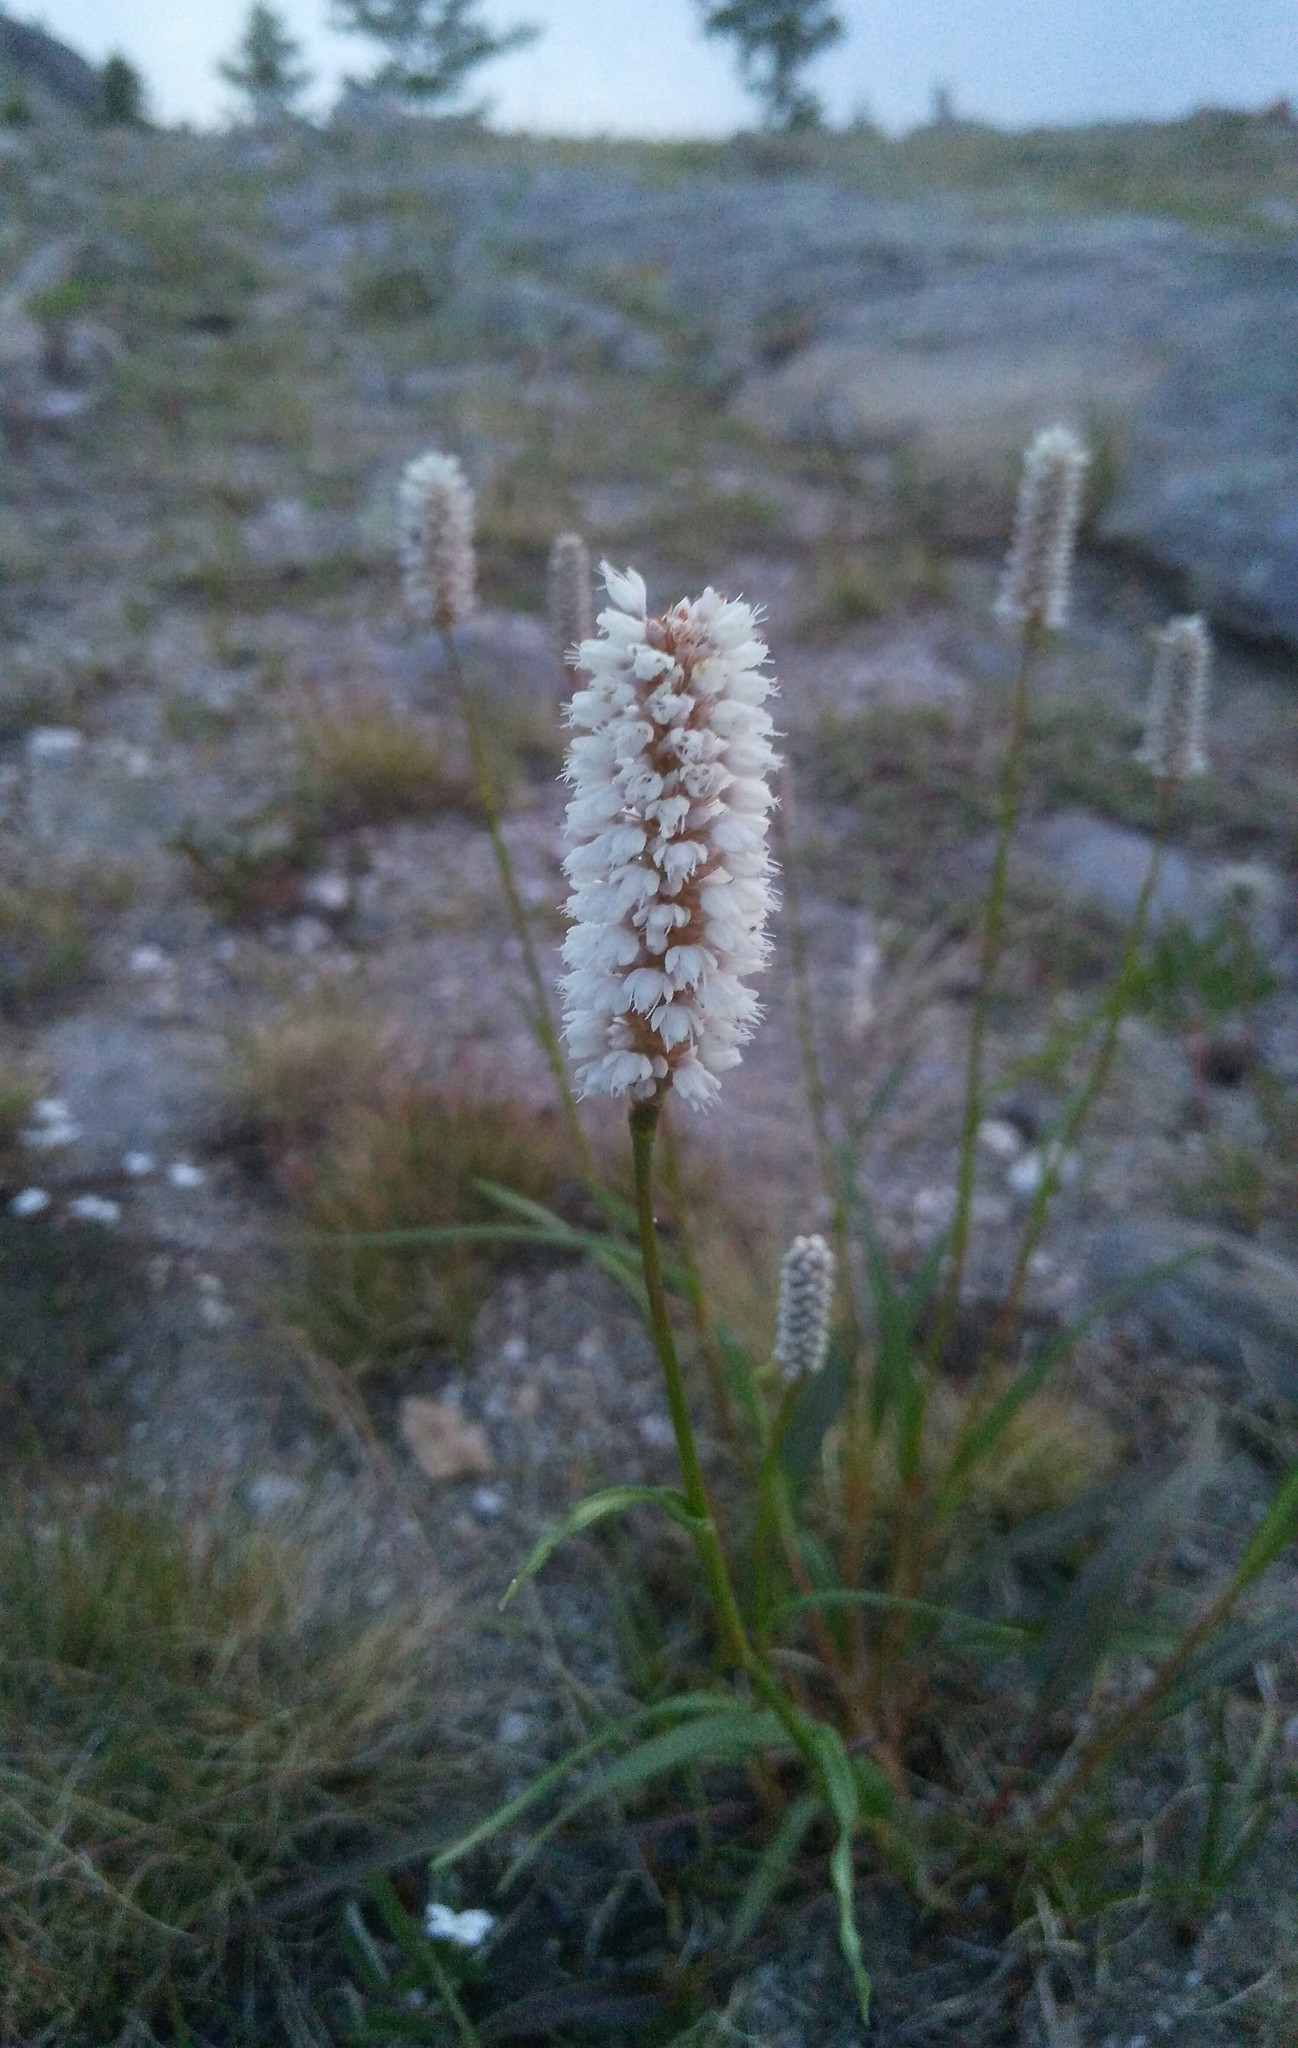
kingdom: Plantae
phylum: Tracheophyta
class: Magnoliopsida
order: Caryophyllales
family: Polygonaceae
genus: Bistorta
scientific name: Bistorta alopecuroides
